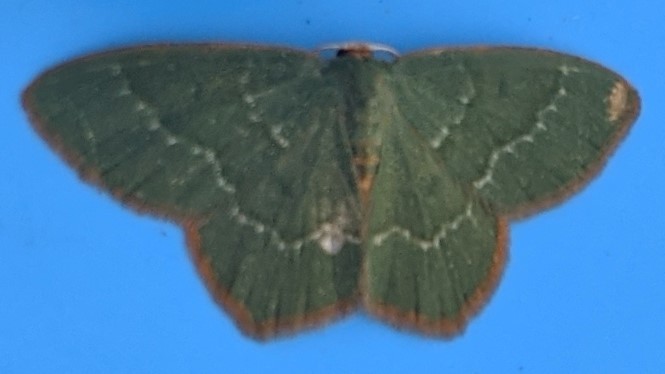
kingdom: Animalia
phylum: Arthropoda
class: Insecta
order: Lepidoptera
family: Geometridae
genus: Thalera
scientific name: Thalera pistasciaria
